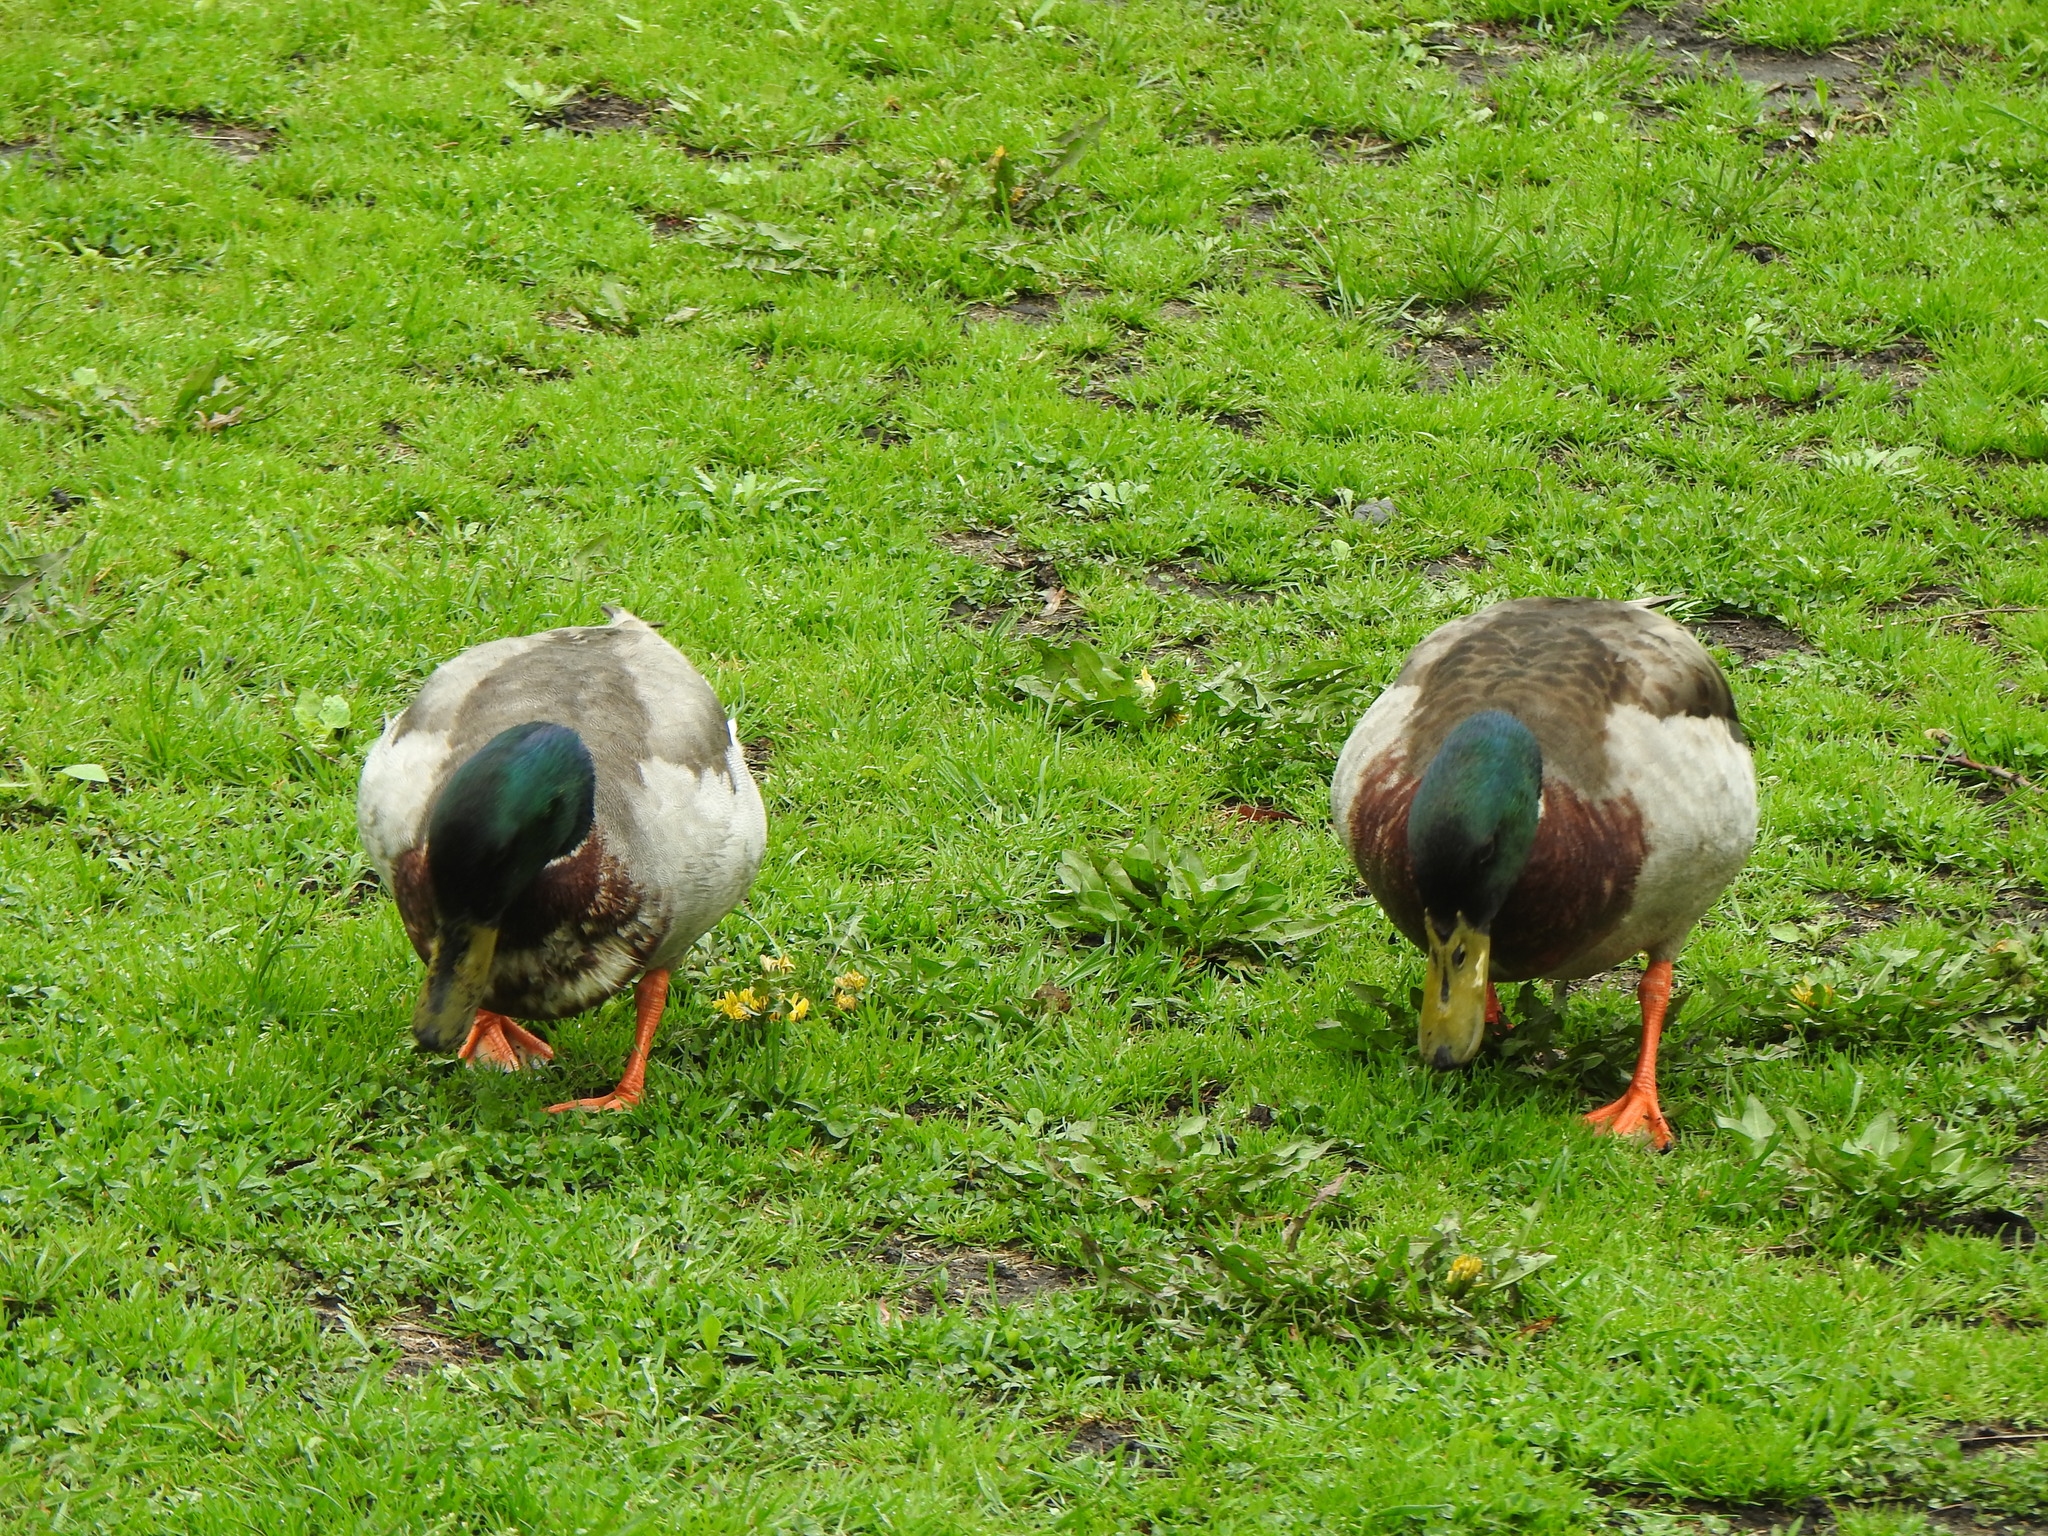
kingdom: Animalia
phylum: Chordata
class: Aves
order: Anseriformes
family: Anatidae
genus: Anas
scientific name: Anas platyrhynchos
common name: Mallard
